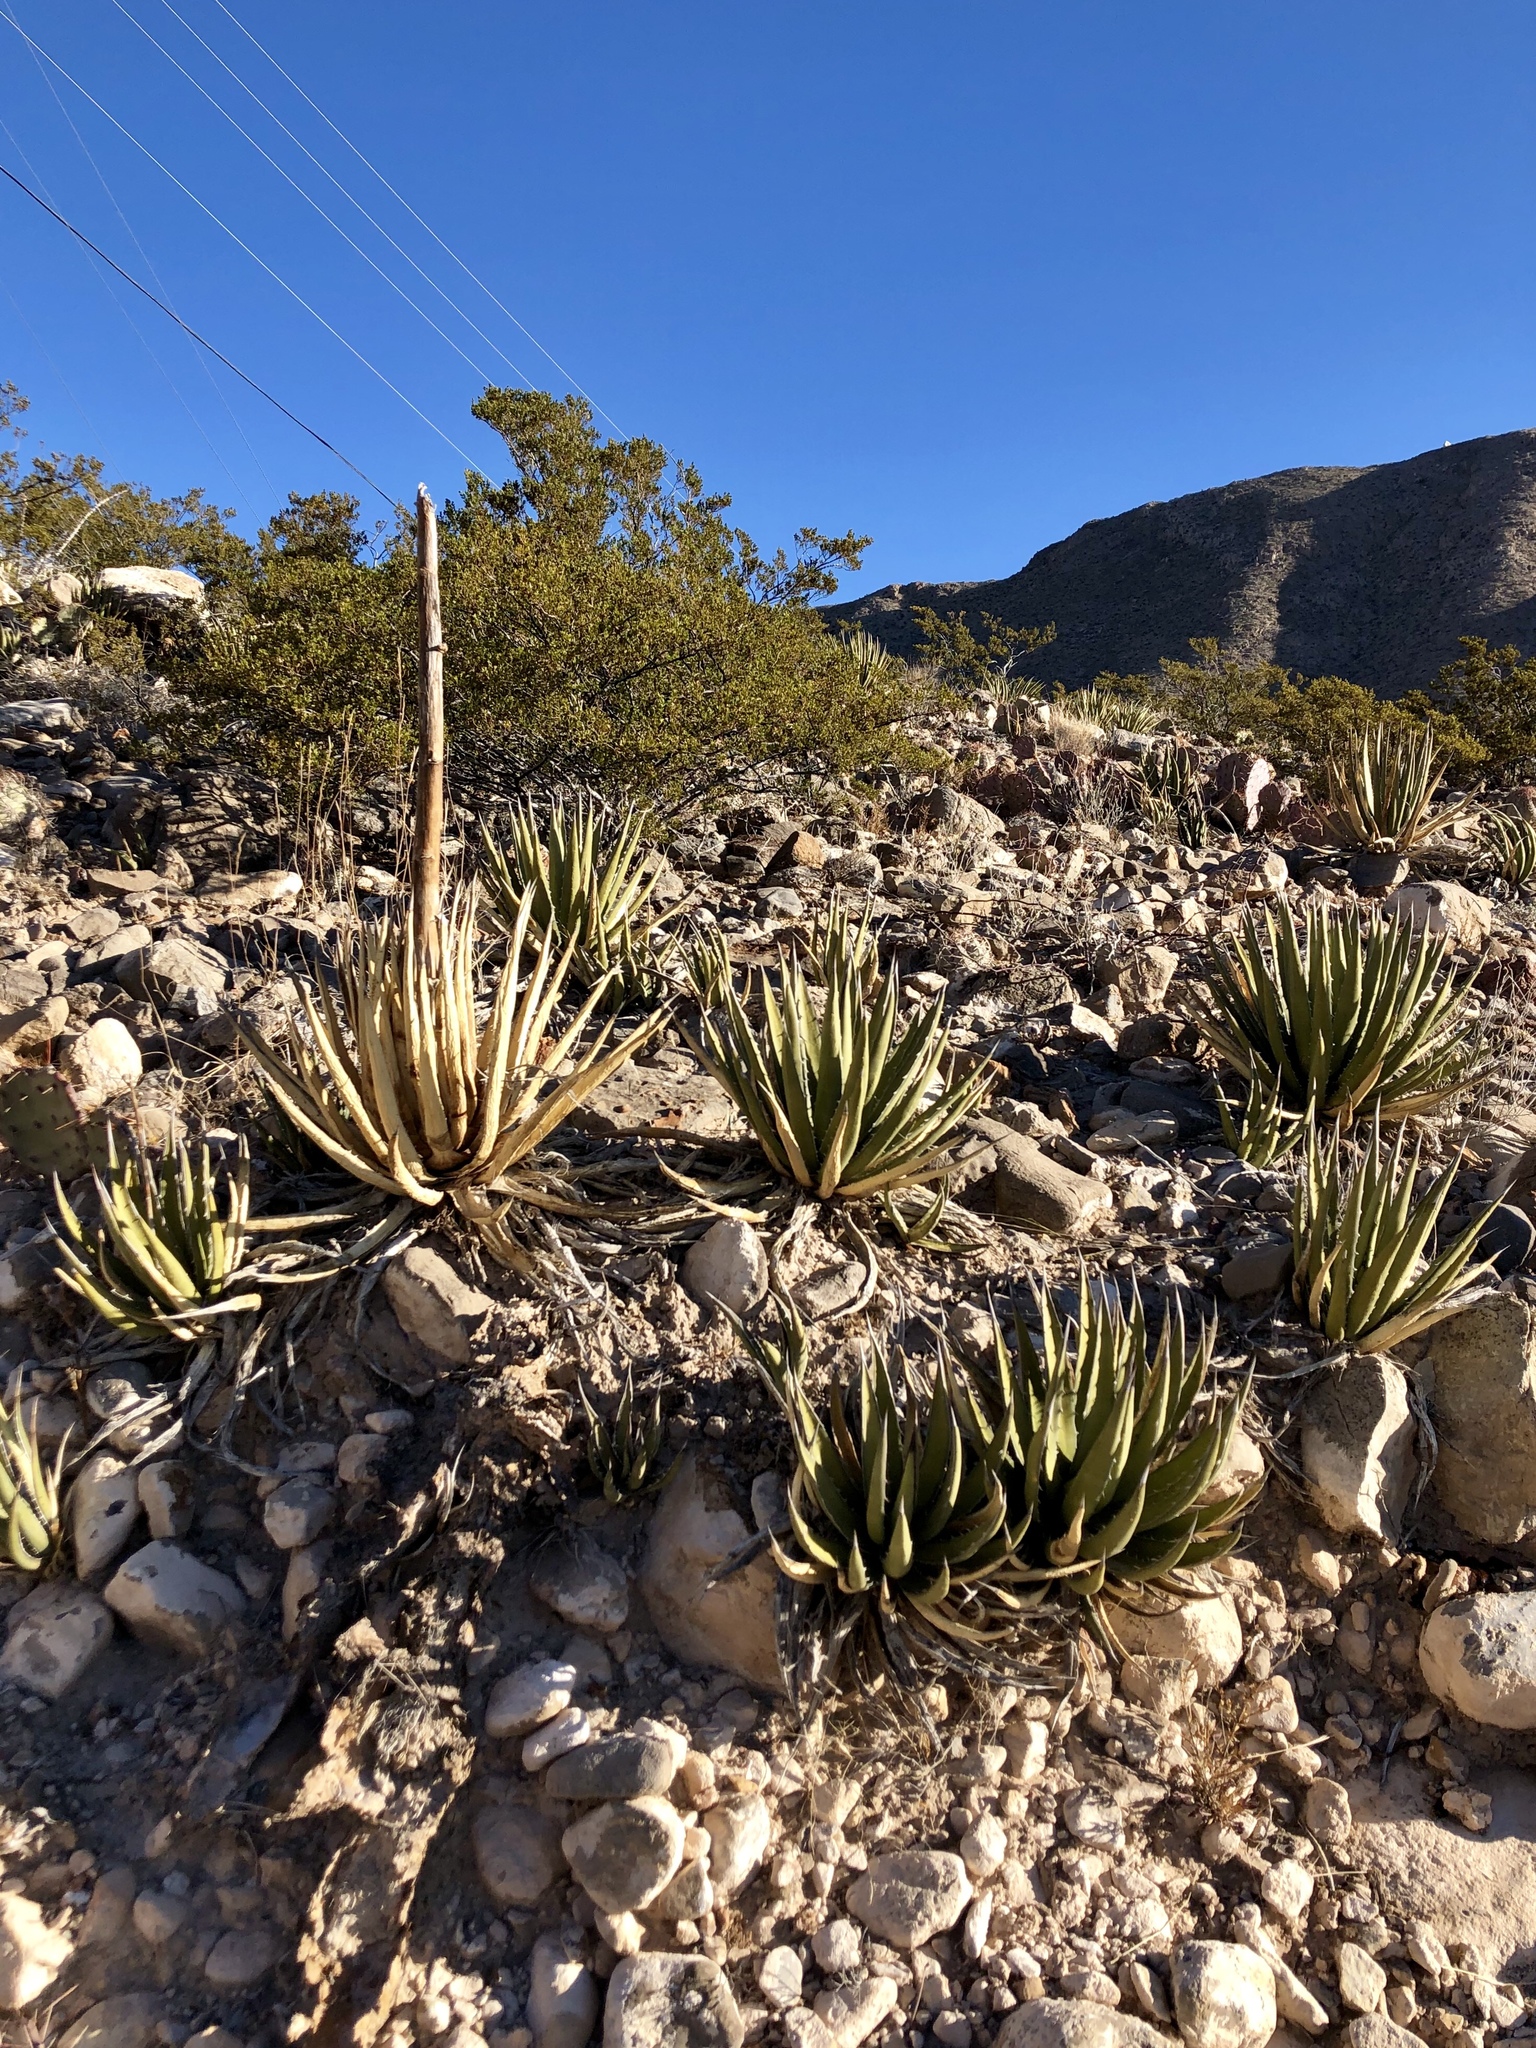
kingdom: Plantae
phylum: Tracheophyta
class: Liliopsida
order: Asparagales
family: Asparagaceae
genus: Agave
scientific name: Agave lechuguilla
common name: Lecheguilla agave
